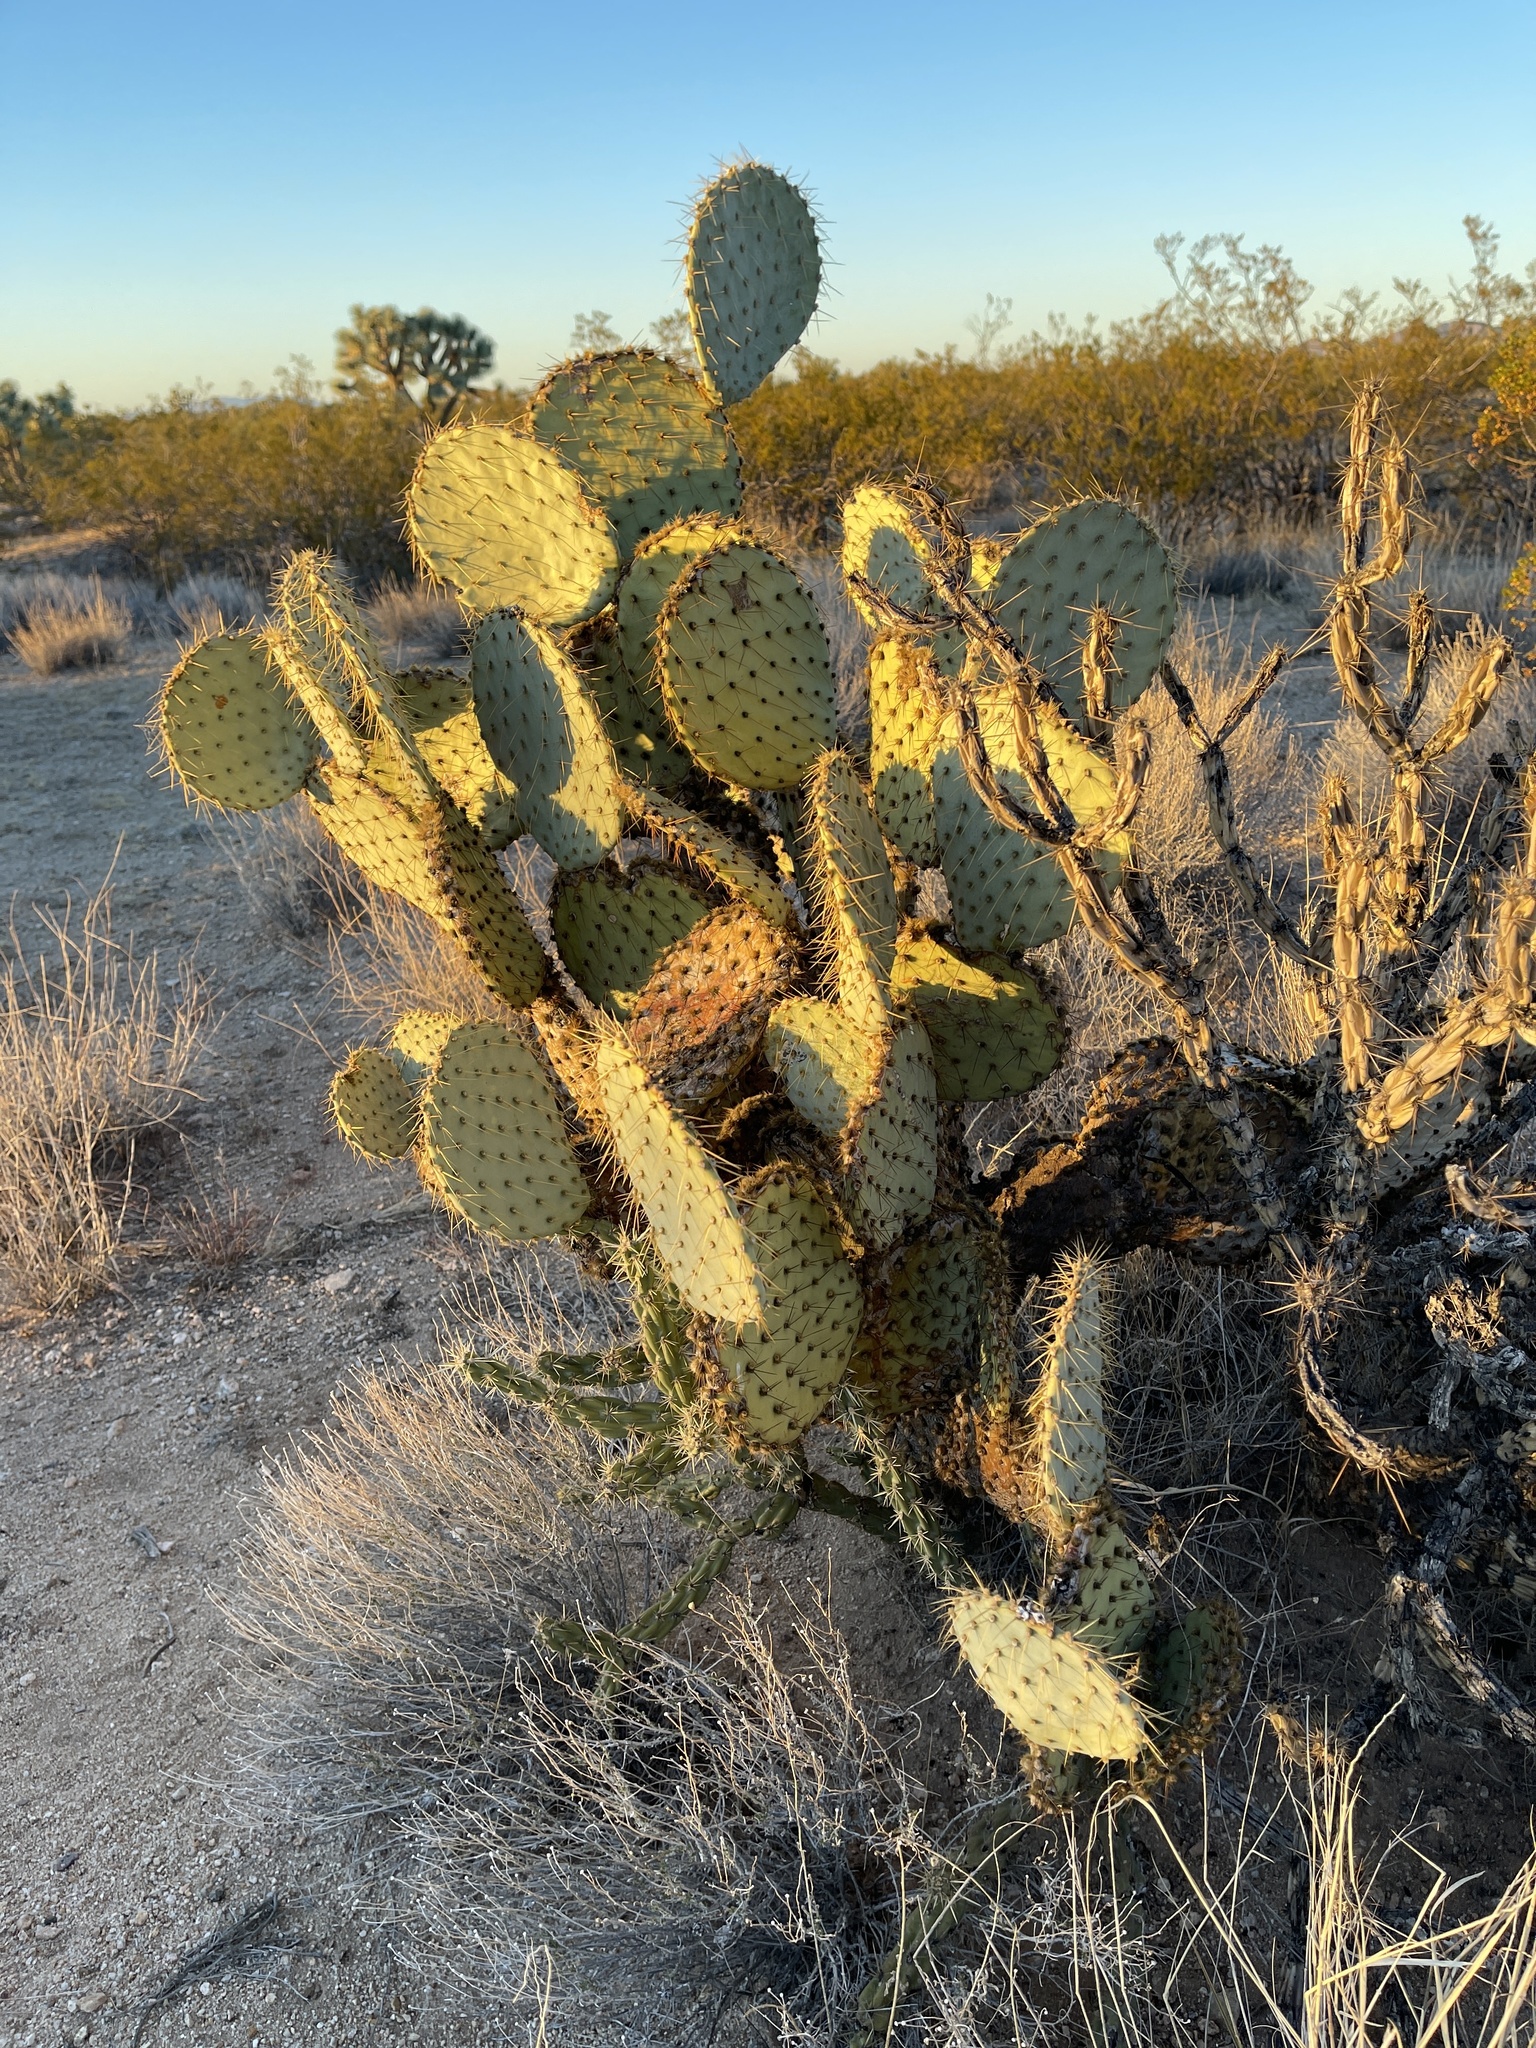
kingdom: Plantae
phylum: Tracheophyta
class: Magnoliopsida
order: Caryophyllales
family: Cactaceae
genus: Opuntia
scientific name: Opuntia chlorotica
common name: Dollar-joint prickly-pear
